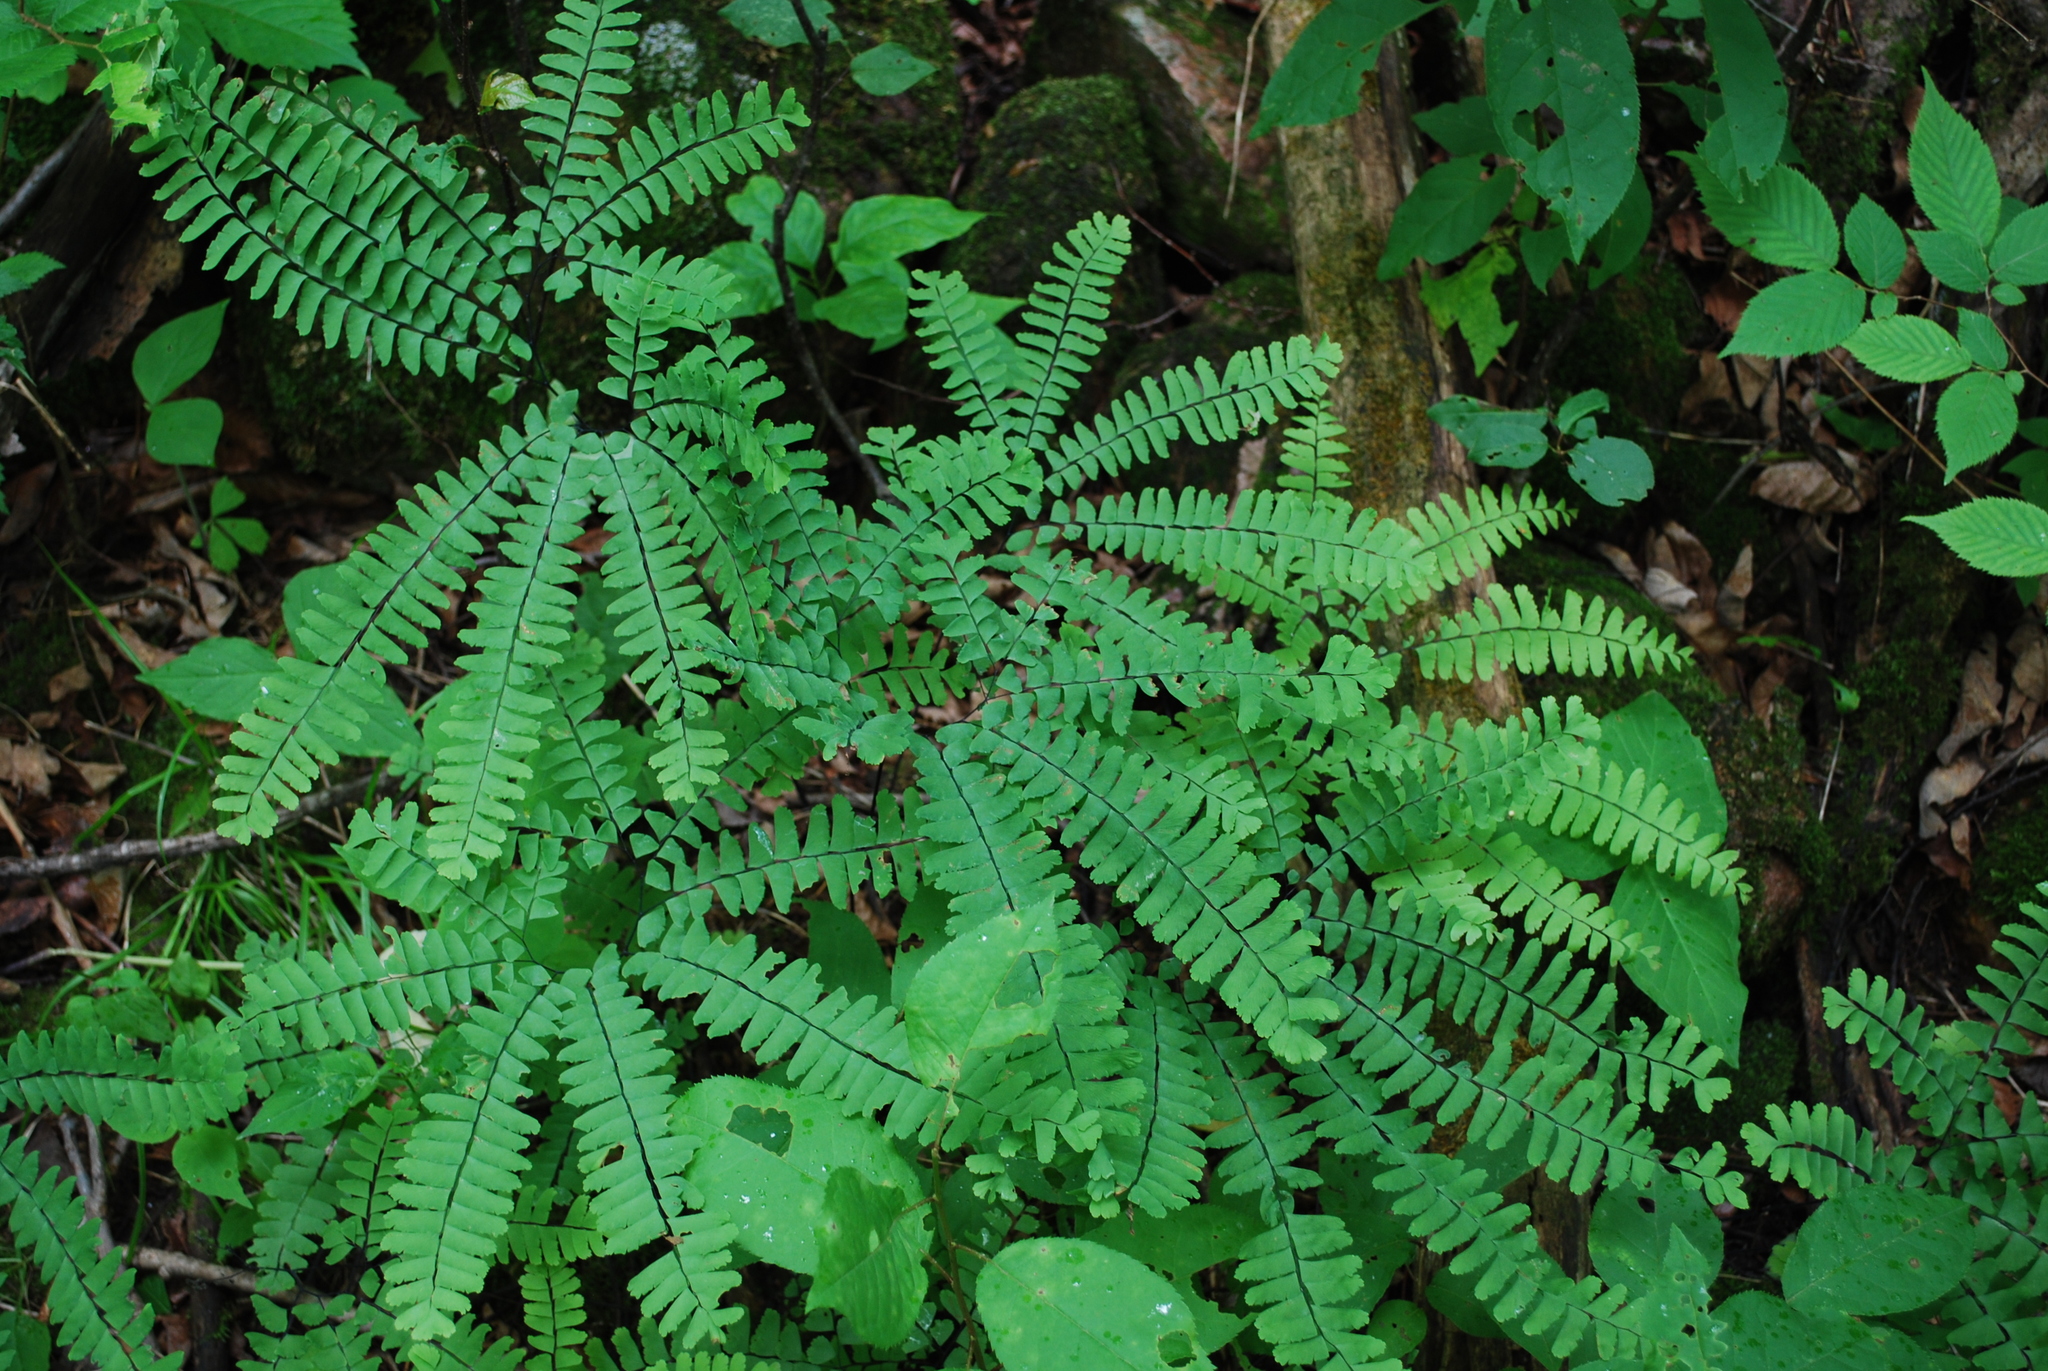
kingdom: Plantae
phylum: Tracheophyta
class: Polypodiopsida
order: Polypodiales
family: Pteridaceae
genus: Adiantum
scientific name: Adiantum pedatum
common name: Five-finger fern
